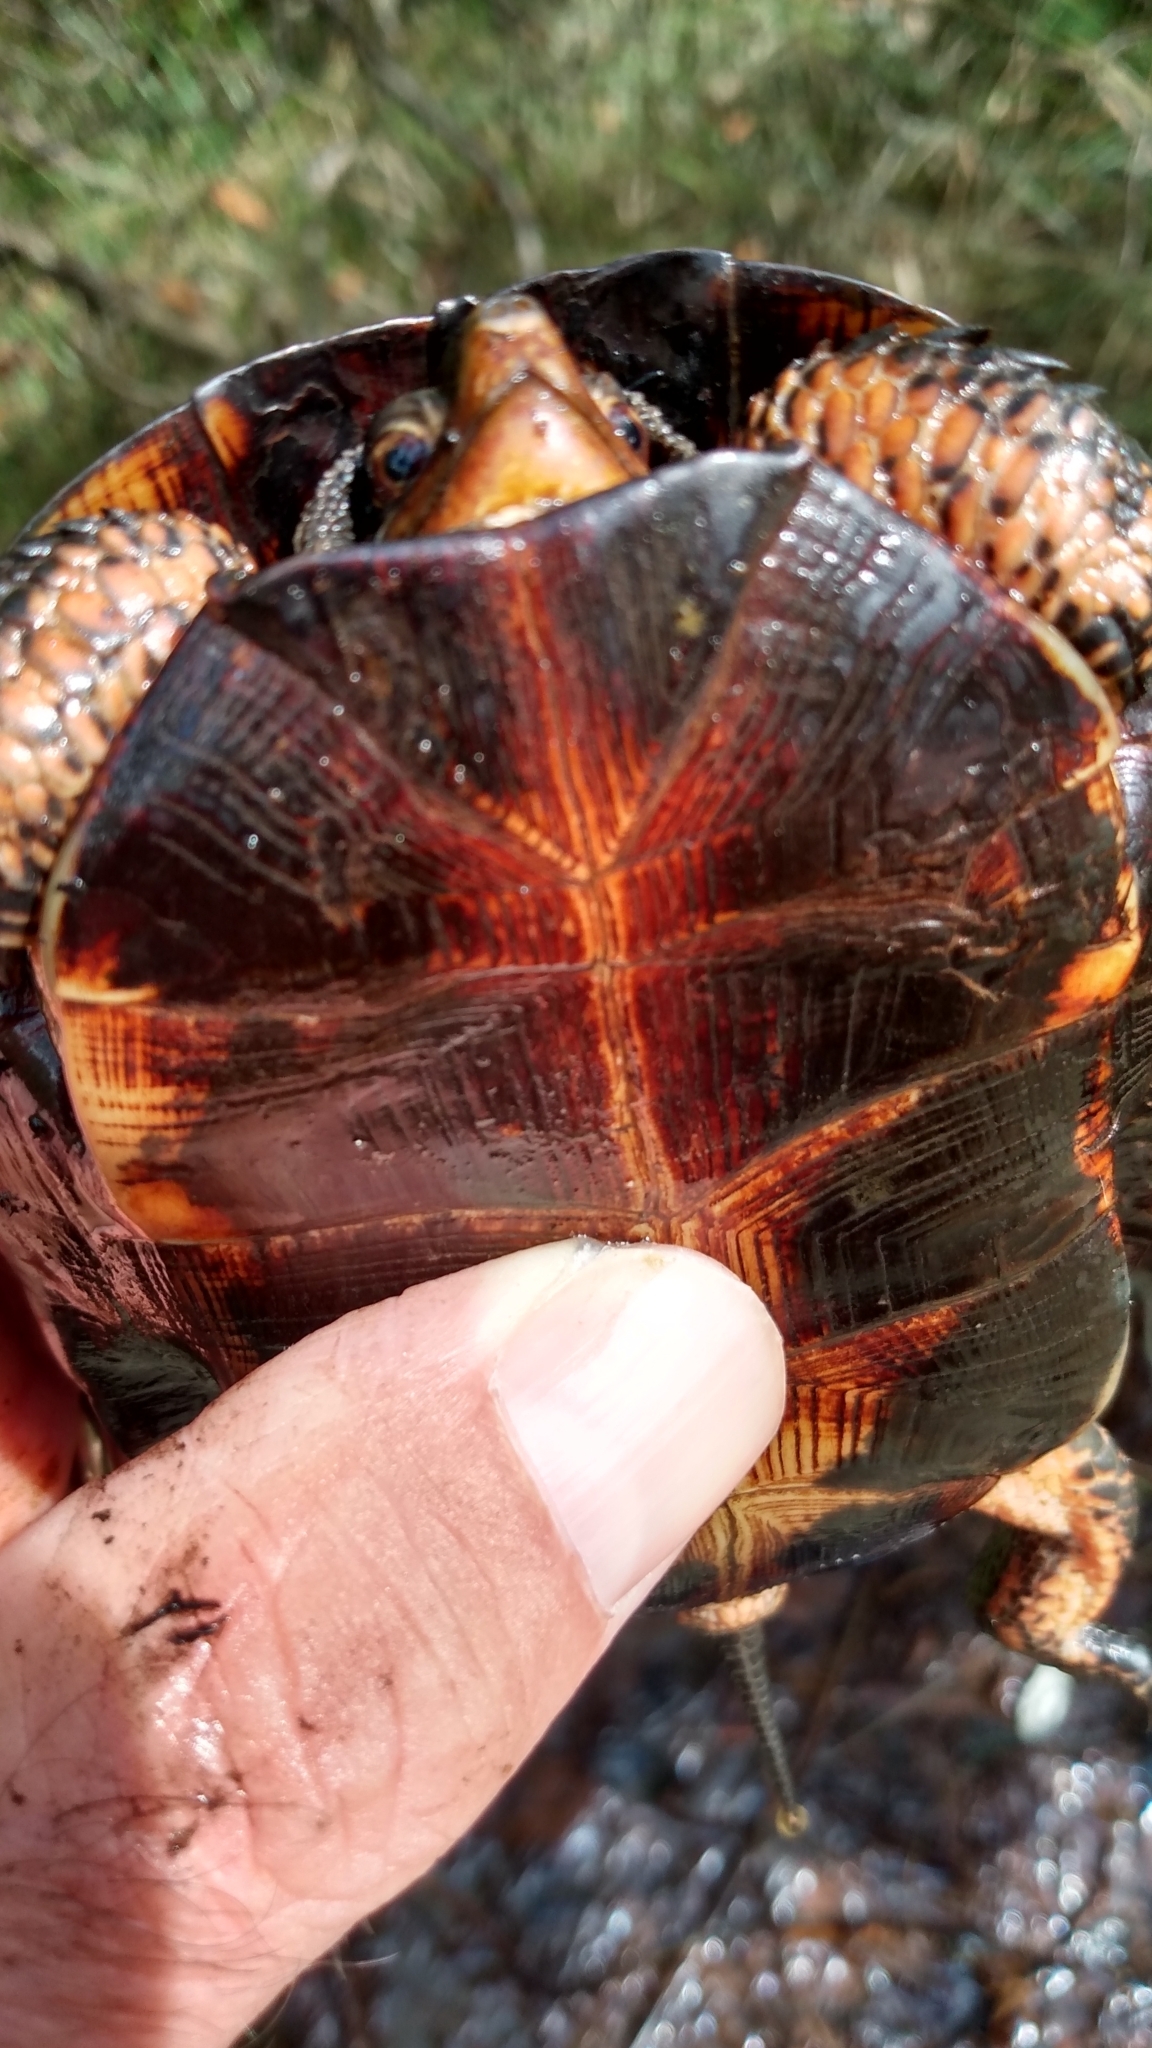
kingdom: Animalia
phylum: Chordata
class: Testudines
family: Emydidae
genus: Clemmys
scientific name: Clemmys guttata
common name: Spotted turtle
